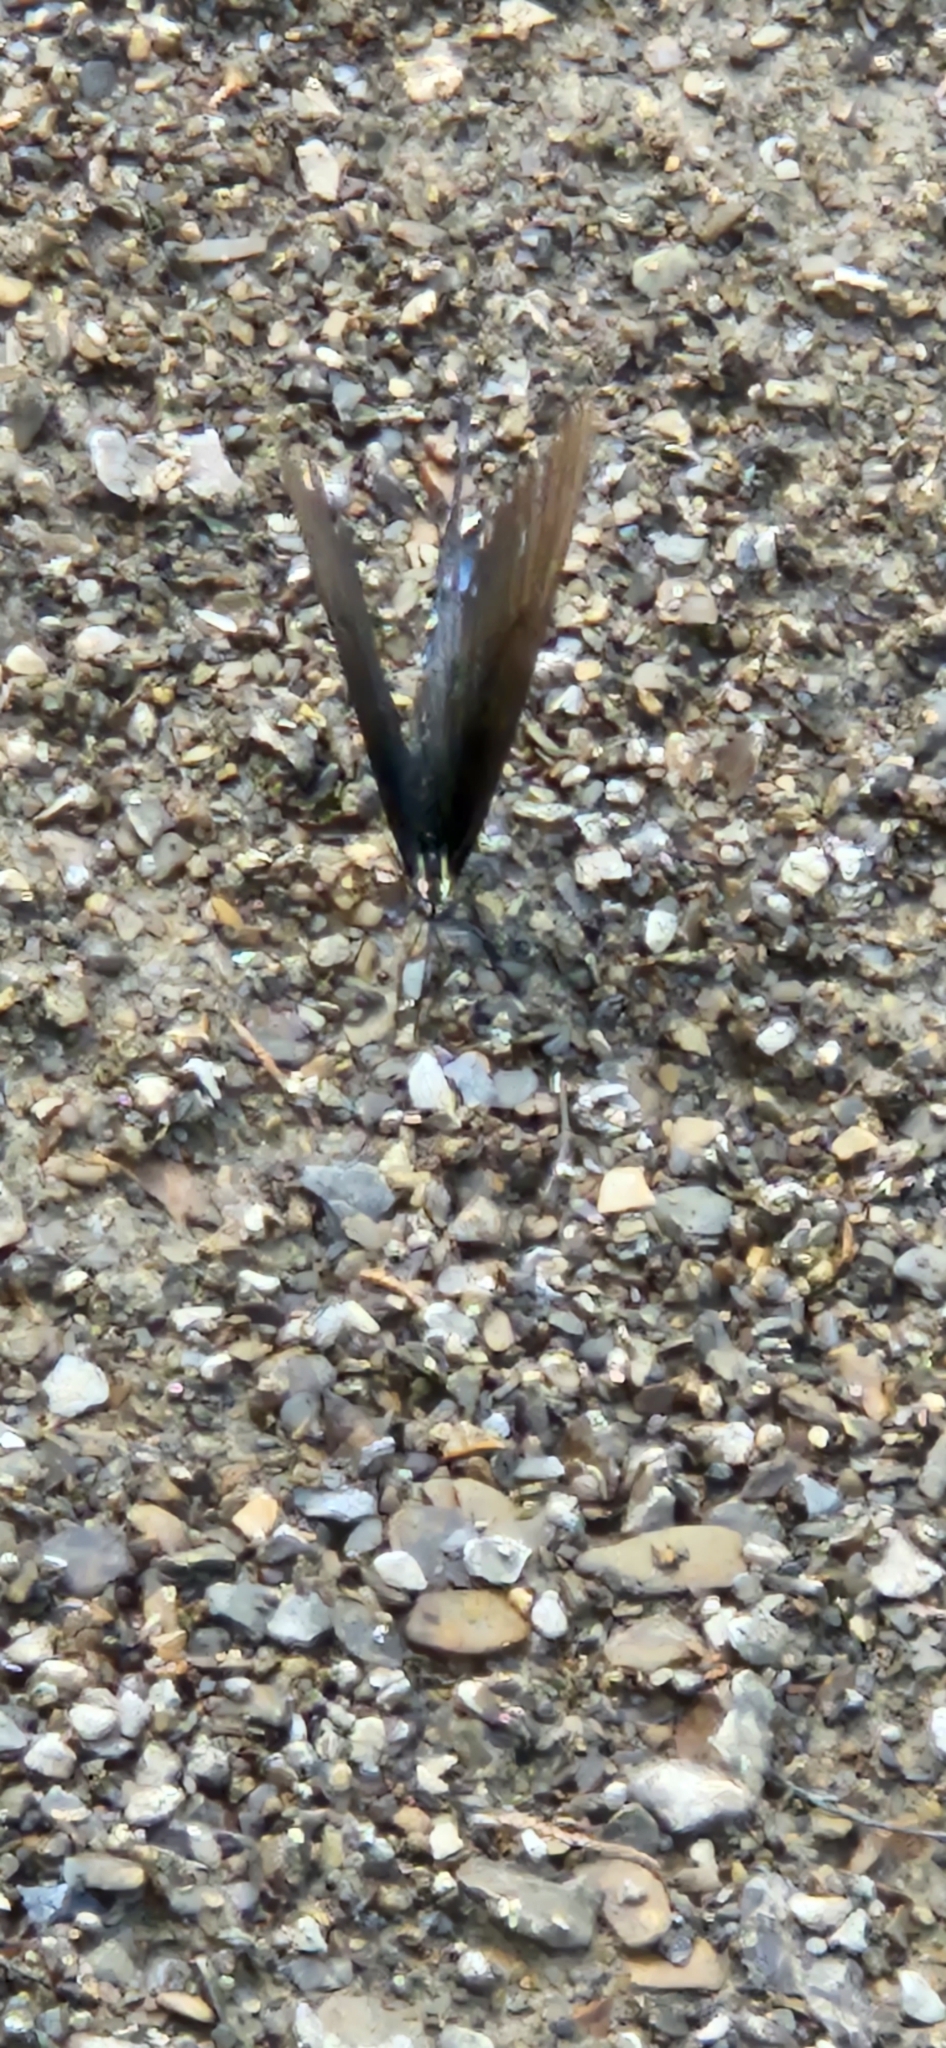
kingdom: Animalia
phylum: Arthropoda
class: Insecta
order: Lepidoptera
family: Papilionidae
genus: Papilio
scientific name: Papilio glaucus
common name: Tiger swallowtail
